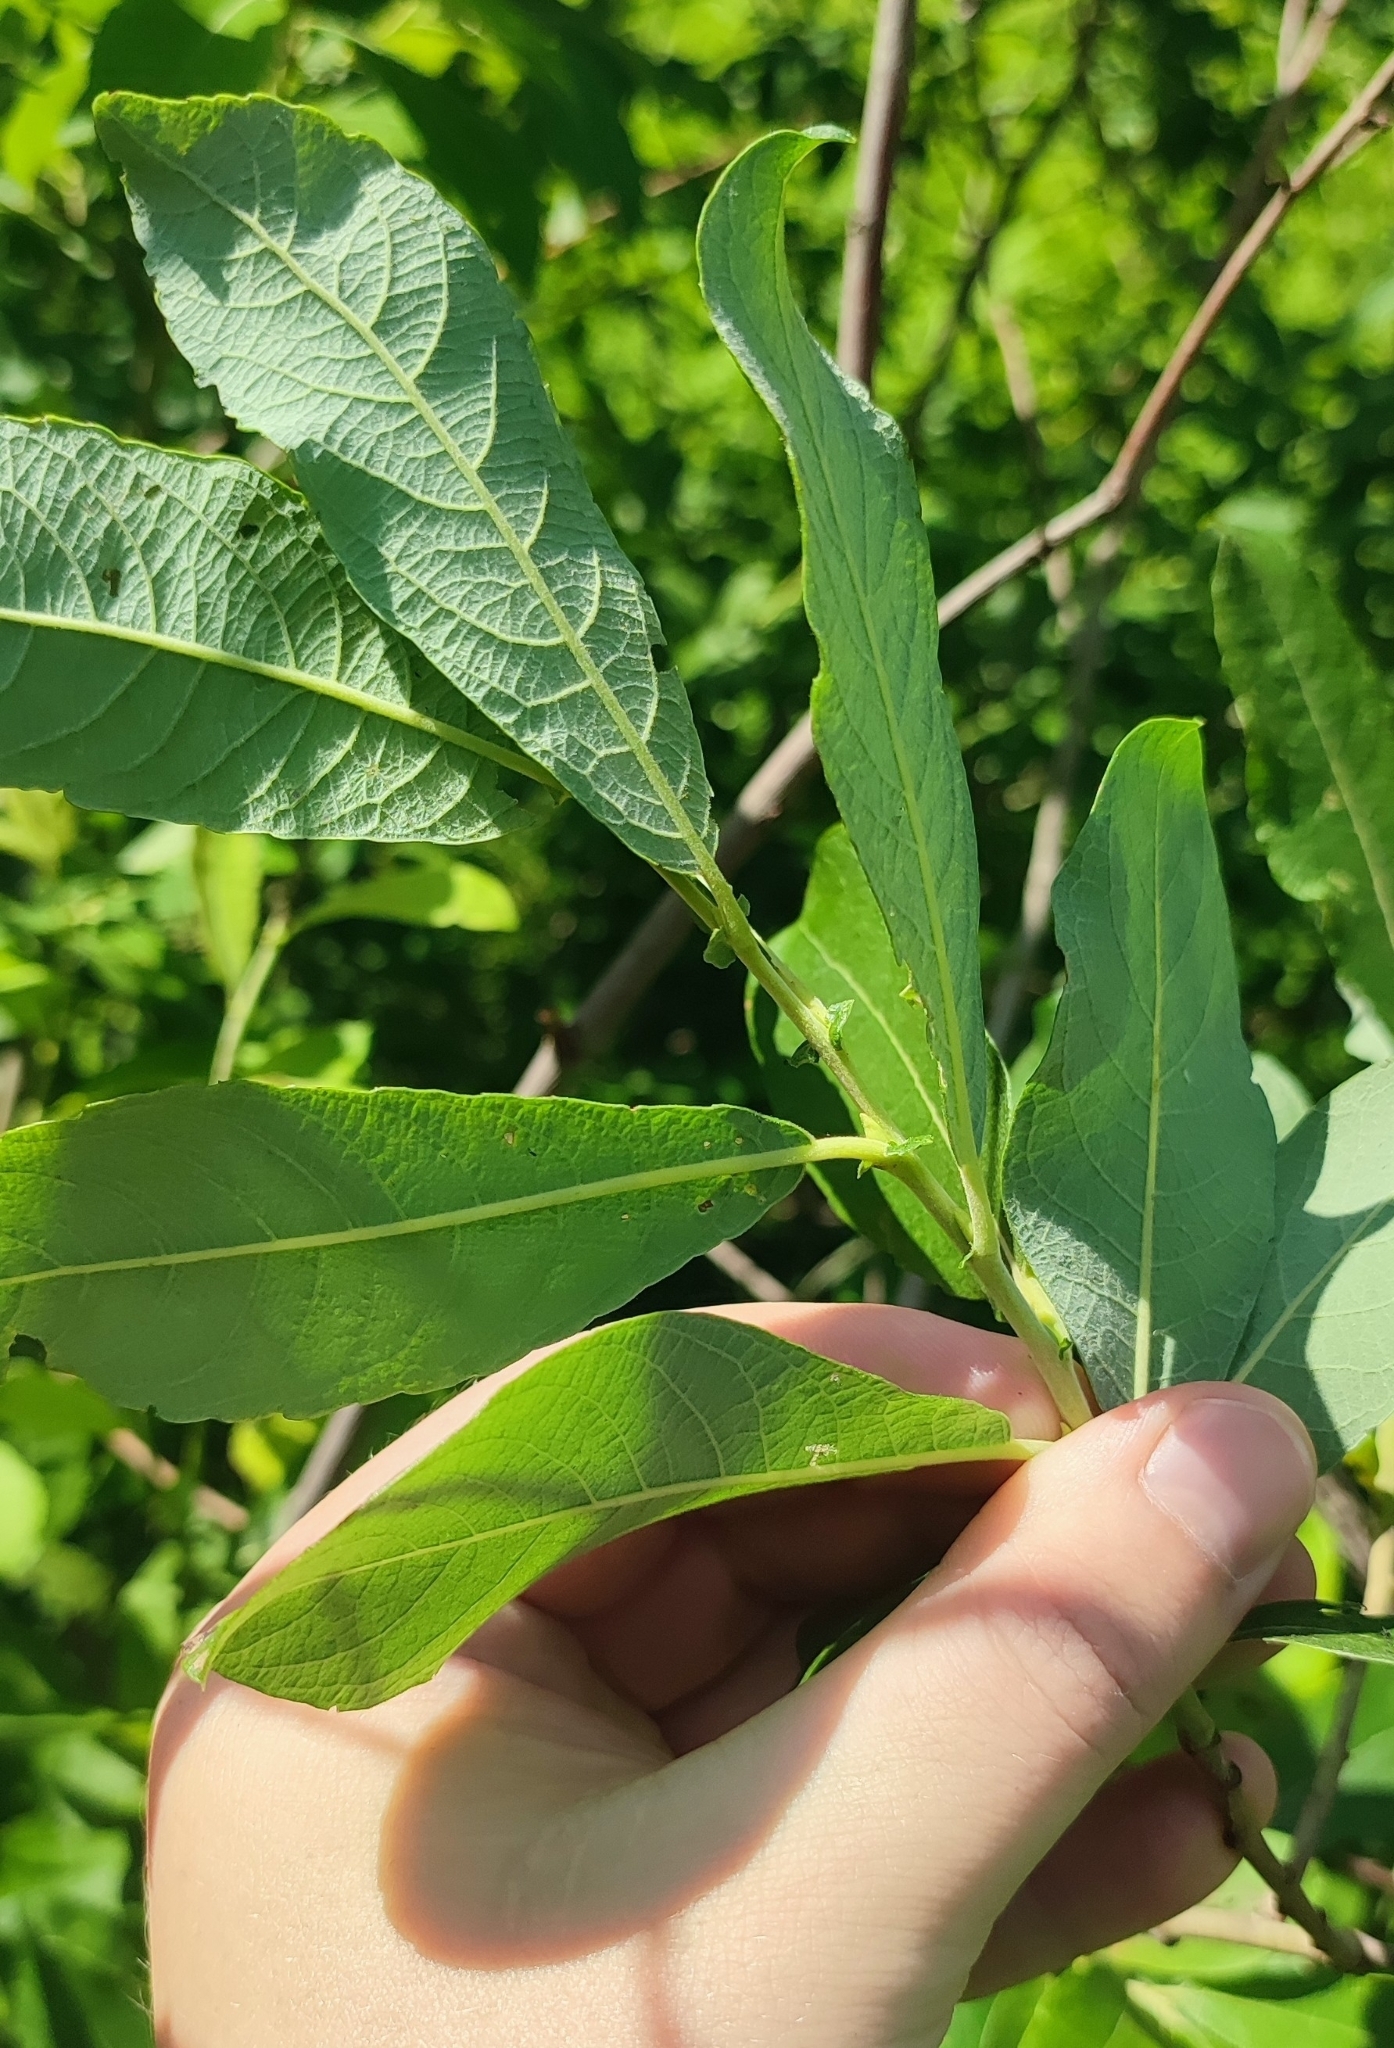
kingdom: Plantae
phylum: Tracheophyta
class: Magnoliopsida
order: Malpighiales
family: Salicaceae
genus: Salix
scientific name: Salix cinerea
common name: Common sallow
